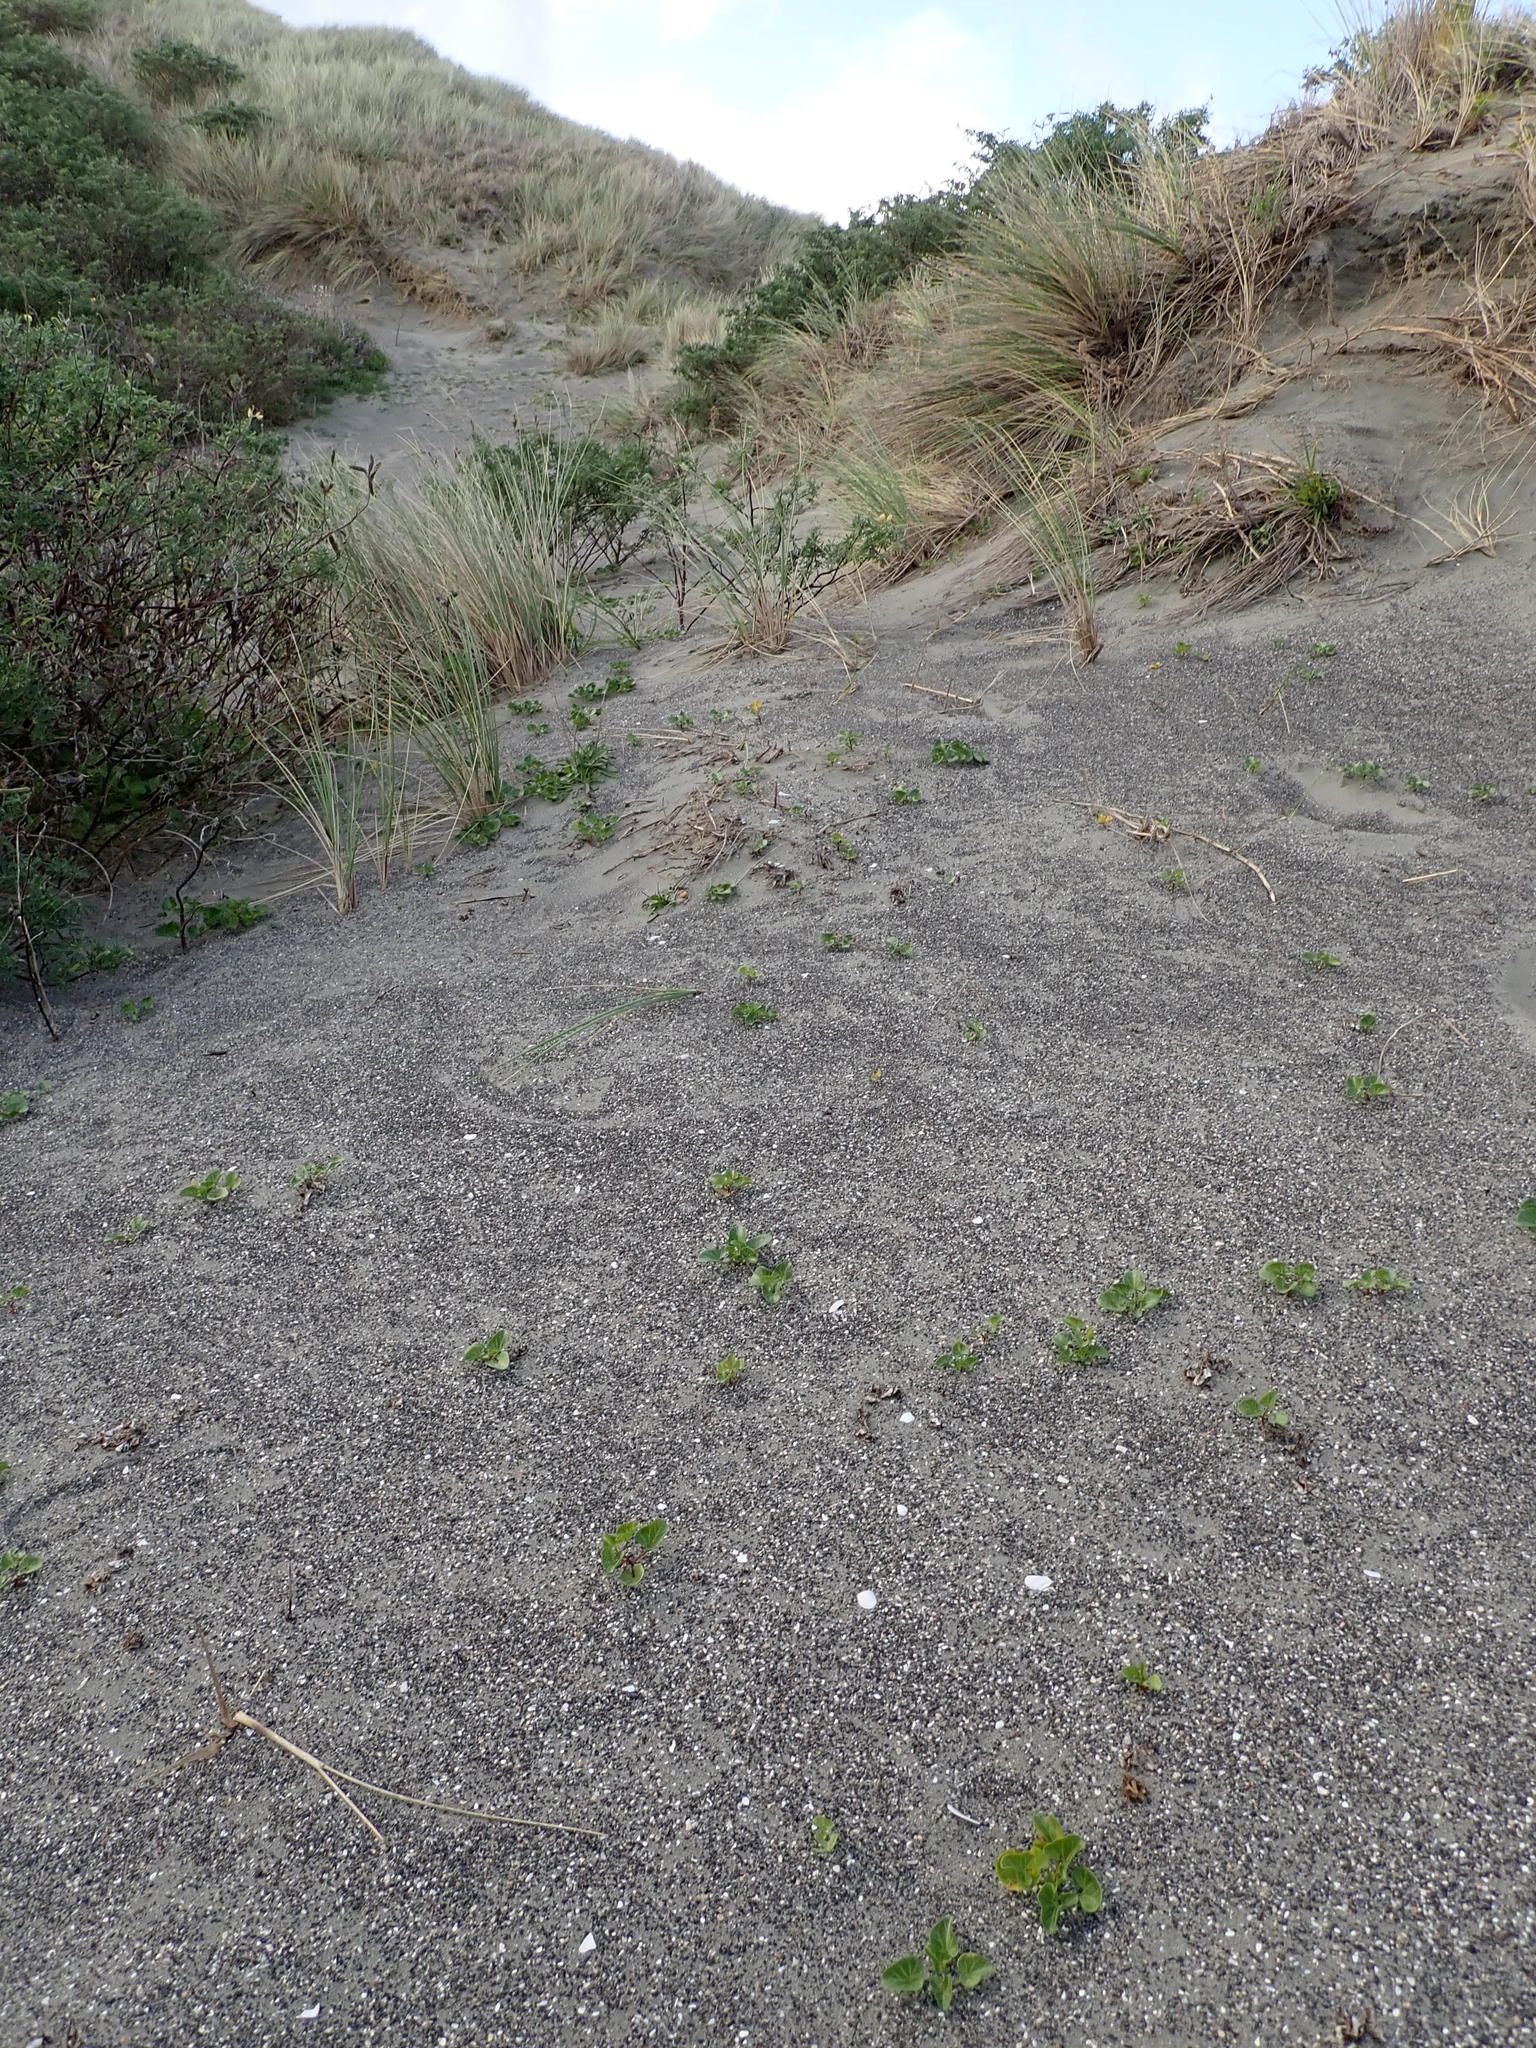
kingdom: Plantae
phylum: Tracheophyta
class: Magnoliopsida
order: Solanales
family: Convolvulaceae
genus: Calystegia
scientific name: Calystegia soldanella
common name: Sea bindweed
